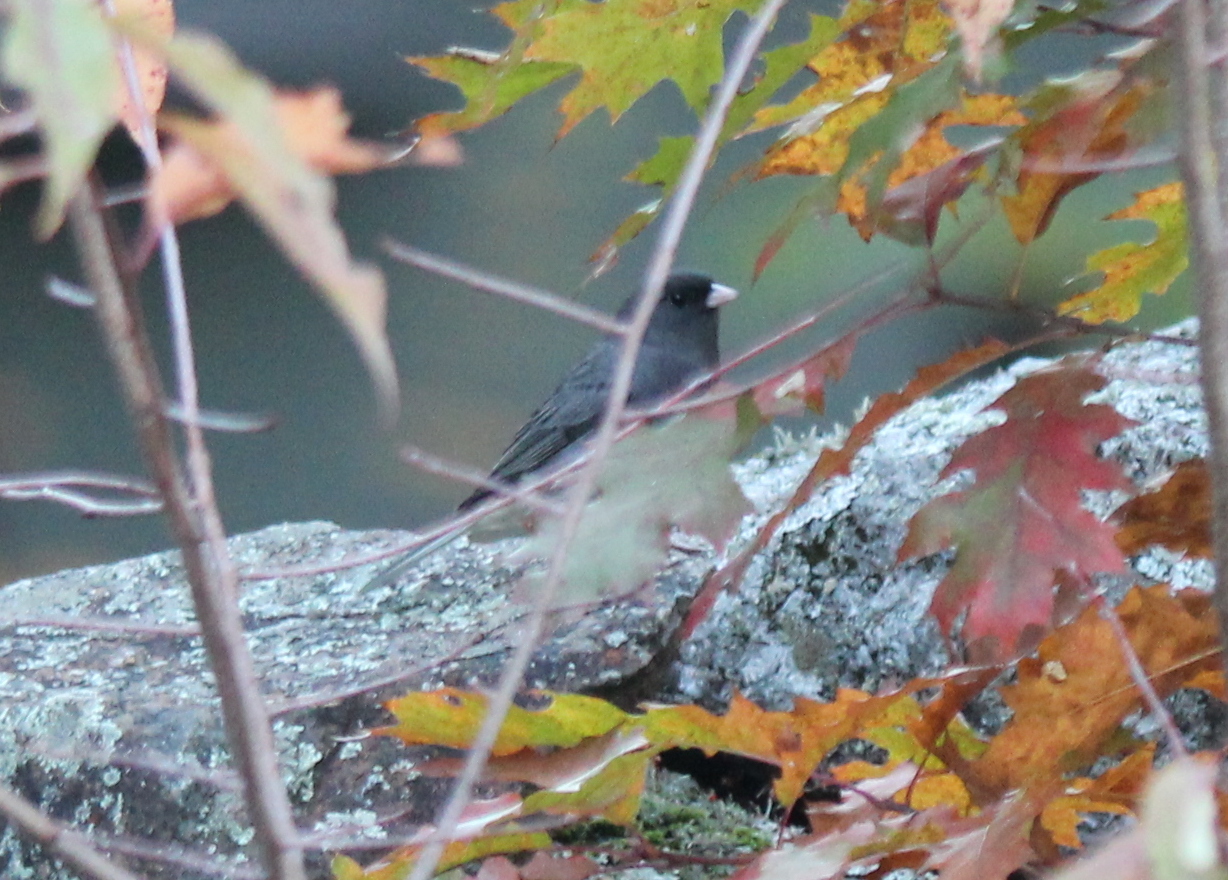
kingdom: Animalia
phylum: Chordata
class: Aves
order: Passeriformes
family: Passerellidae
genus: Junco
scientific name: Junco hyemalis
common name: Dark-eyed junco
